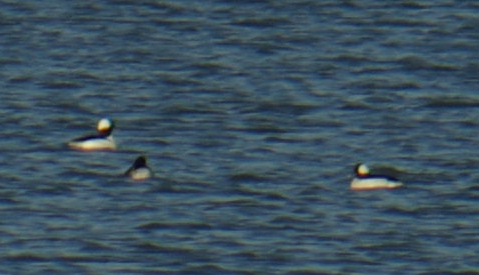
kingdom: Animalia
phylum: Chordata
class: Aves
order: Anseriformes
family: Anatidae
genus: Bucephala
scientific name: Bucephala albeola
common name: Bufflehead
